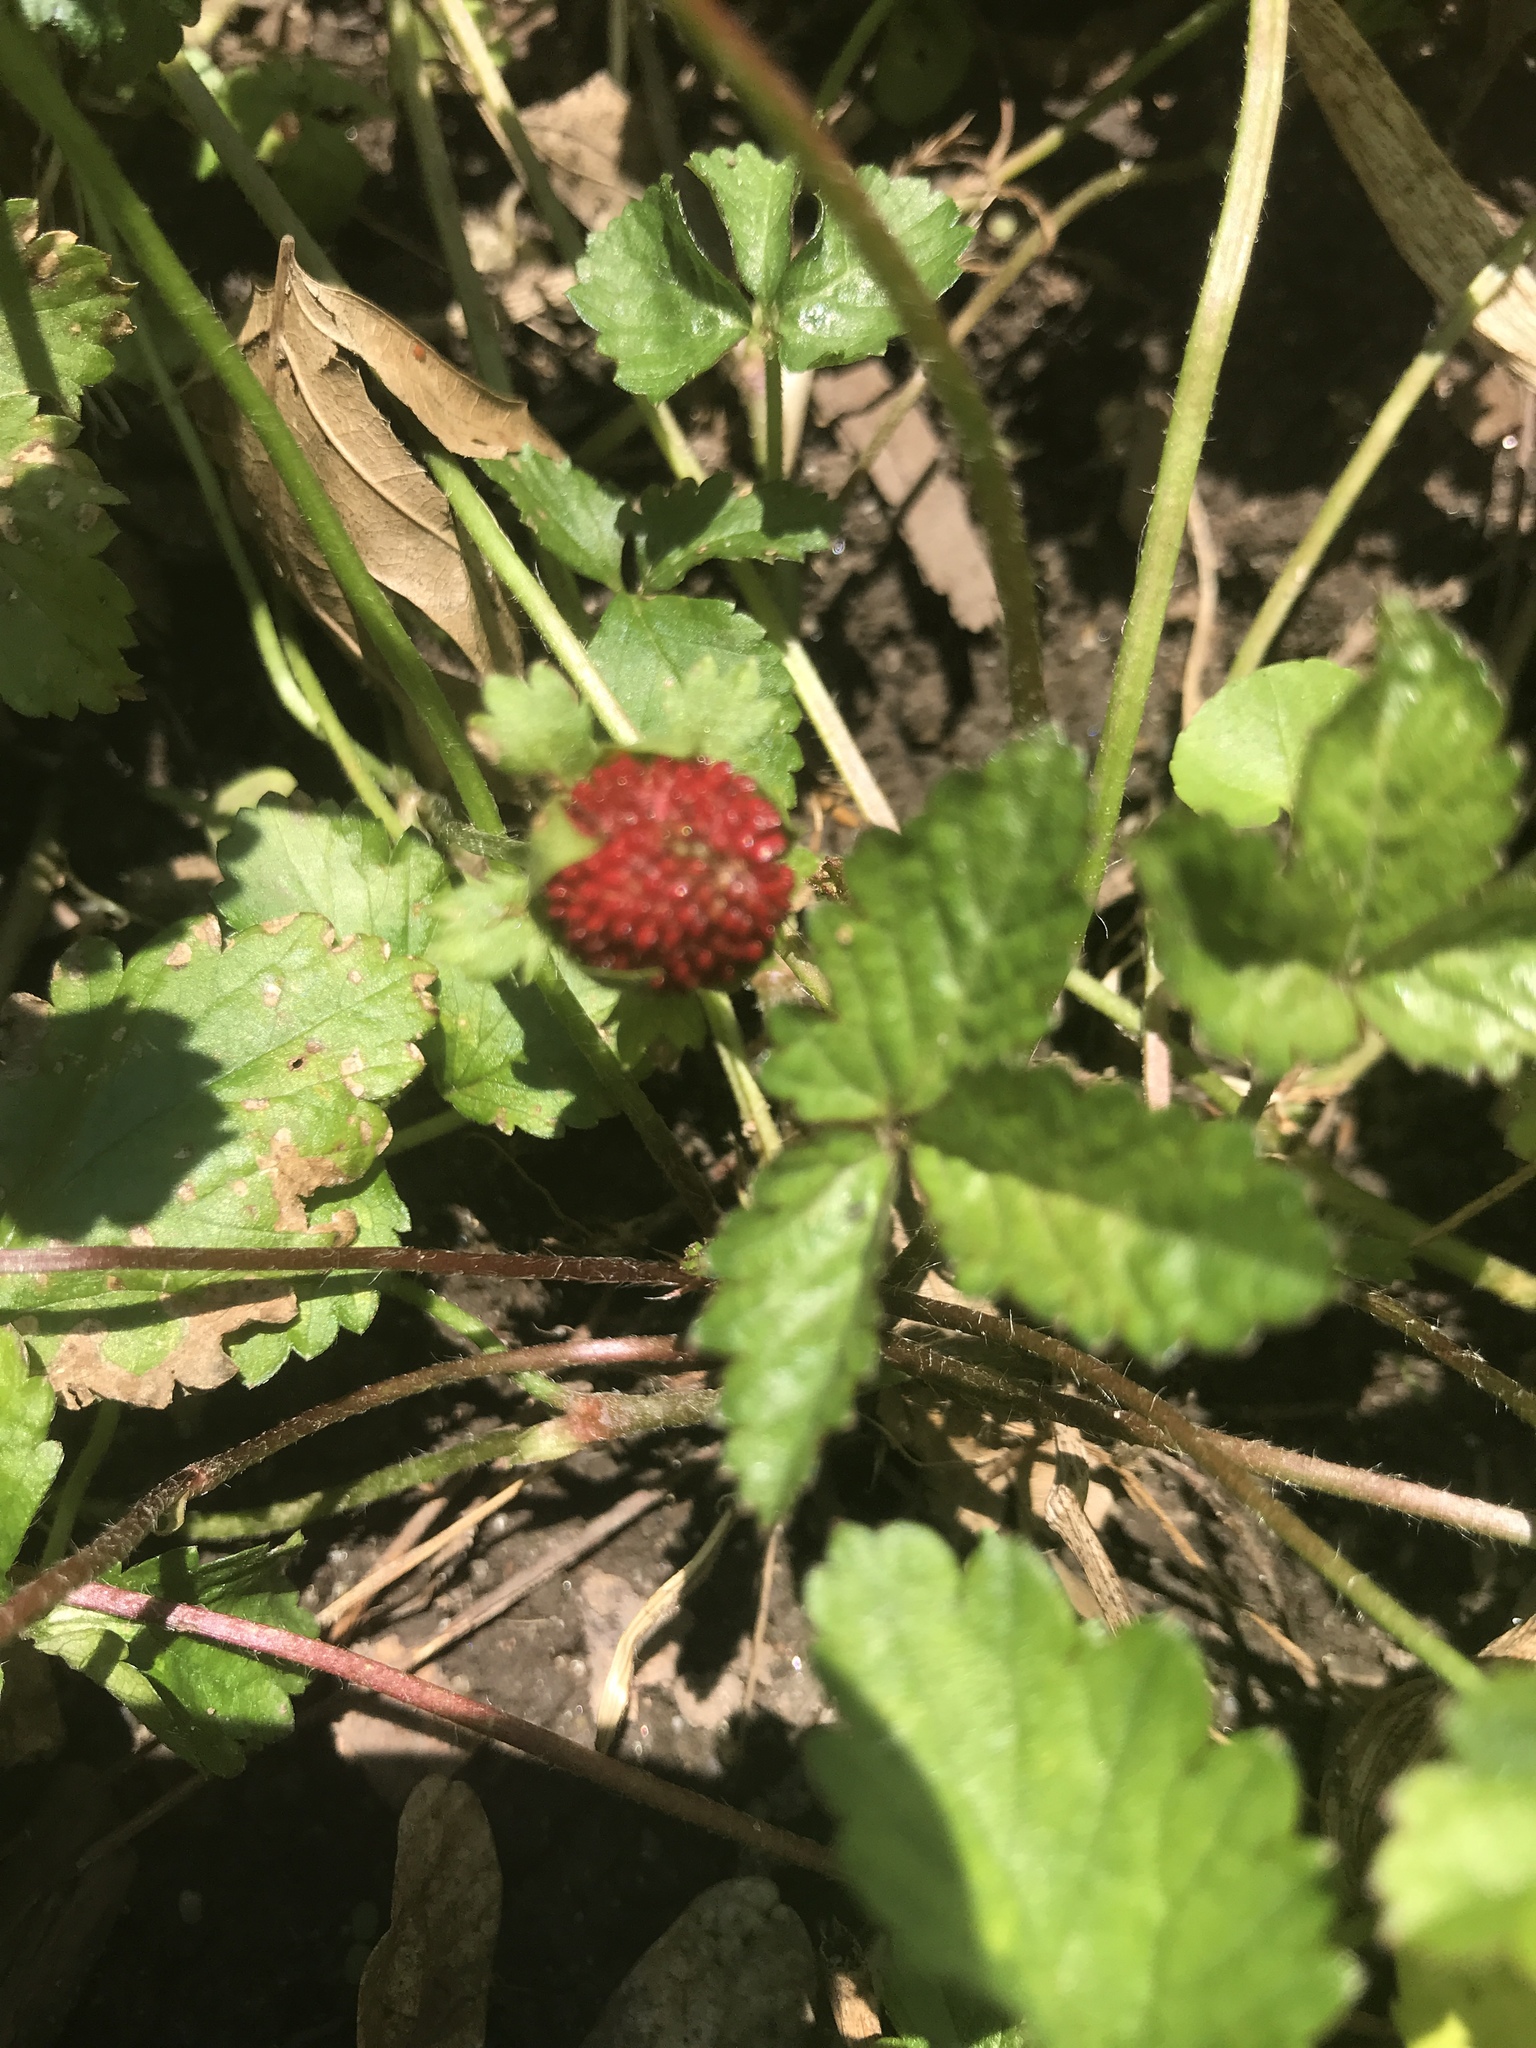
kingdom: Plantae
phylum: Tracheophyta
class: Magnoliopsida
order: Rosales
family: Rosaceae
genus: Potentilla
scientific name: Potentilla indica
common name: Yellow-flowered strawberry
